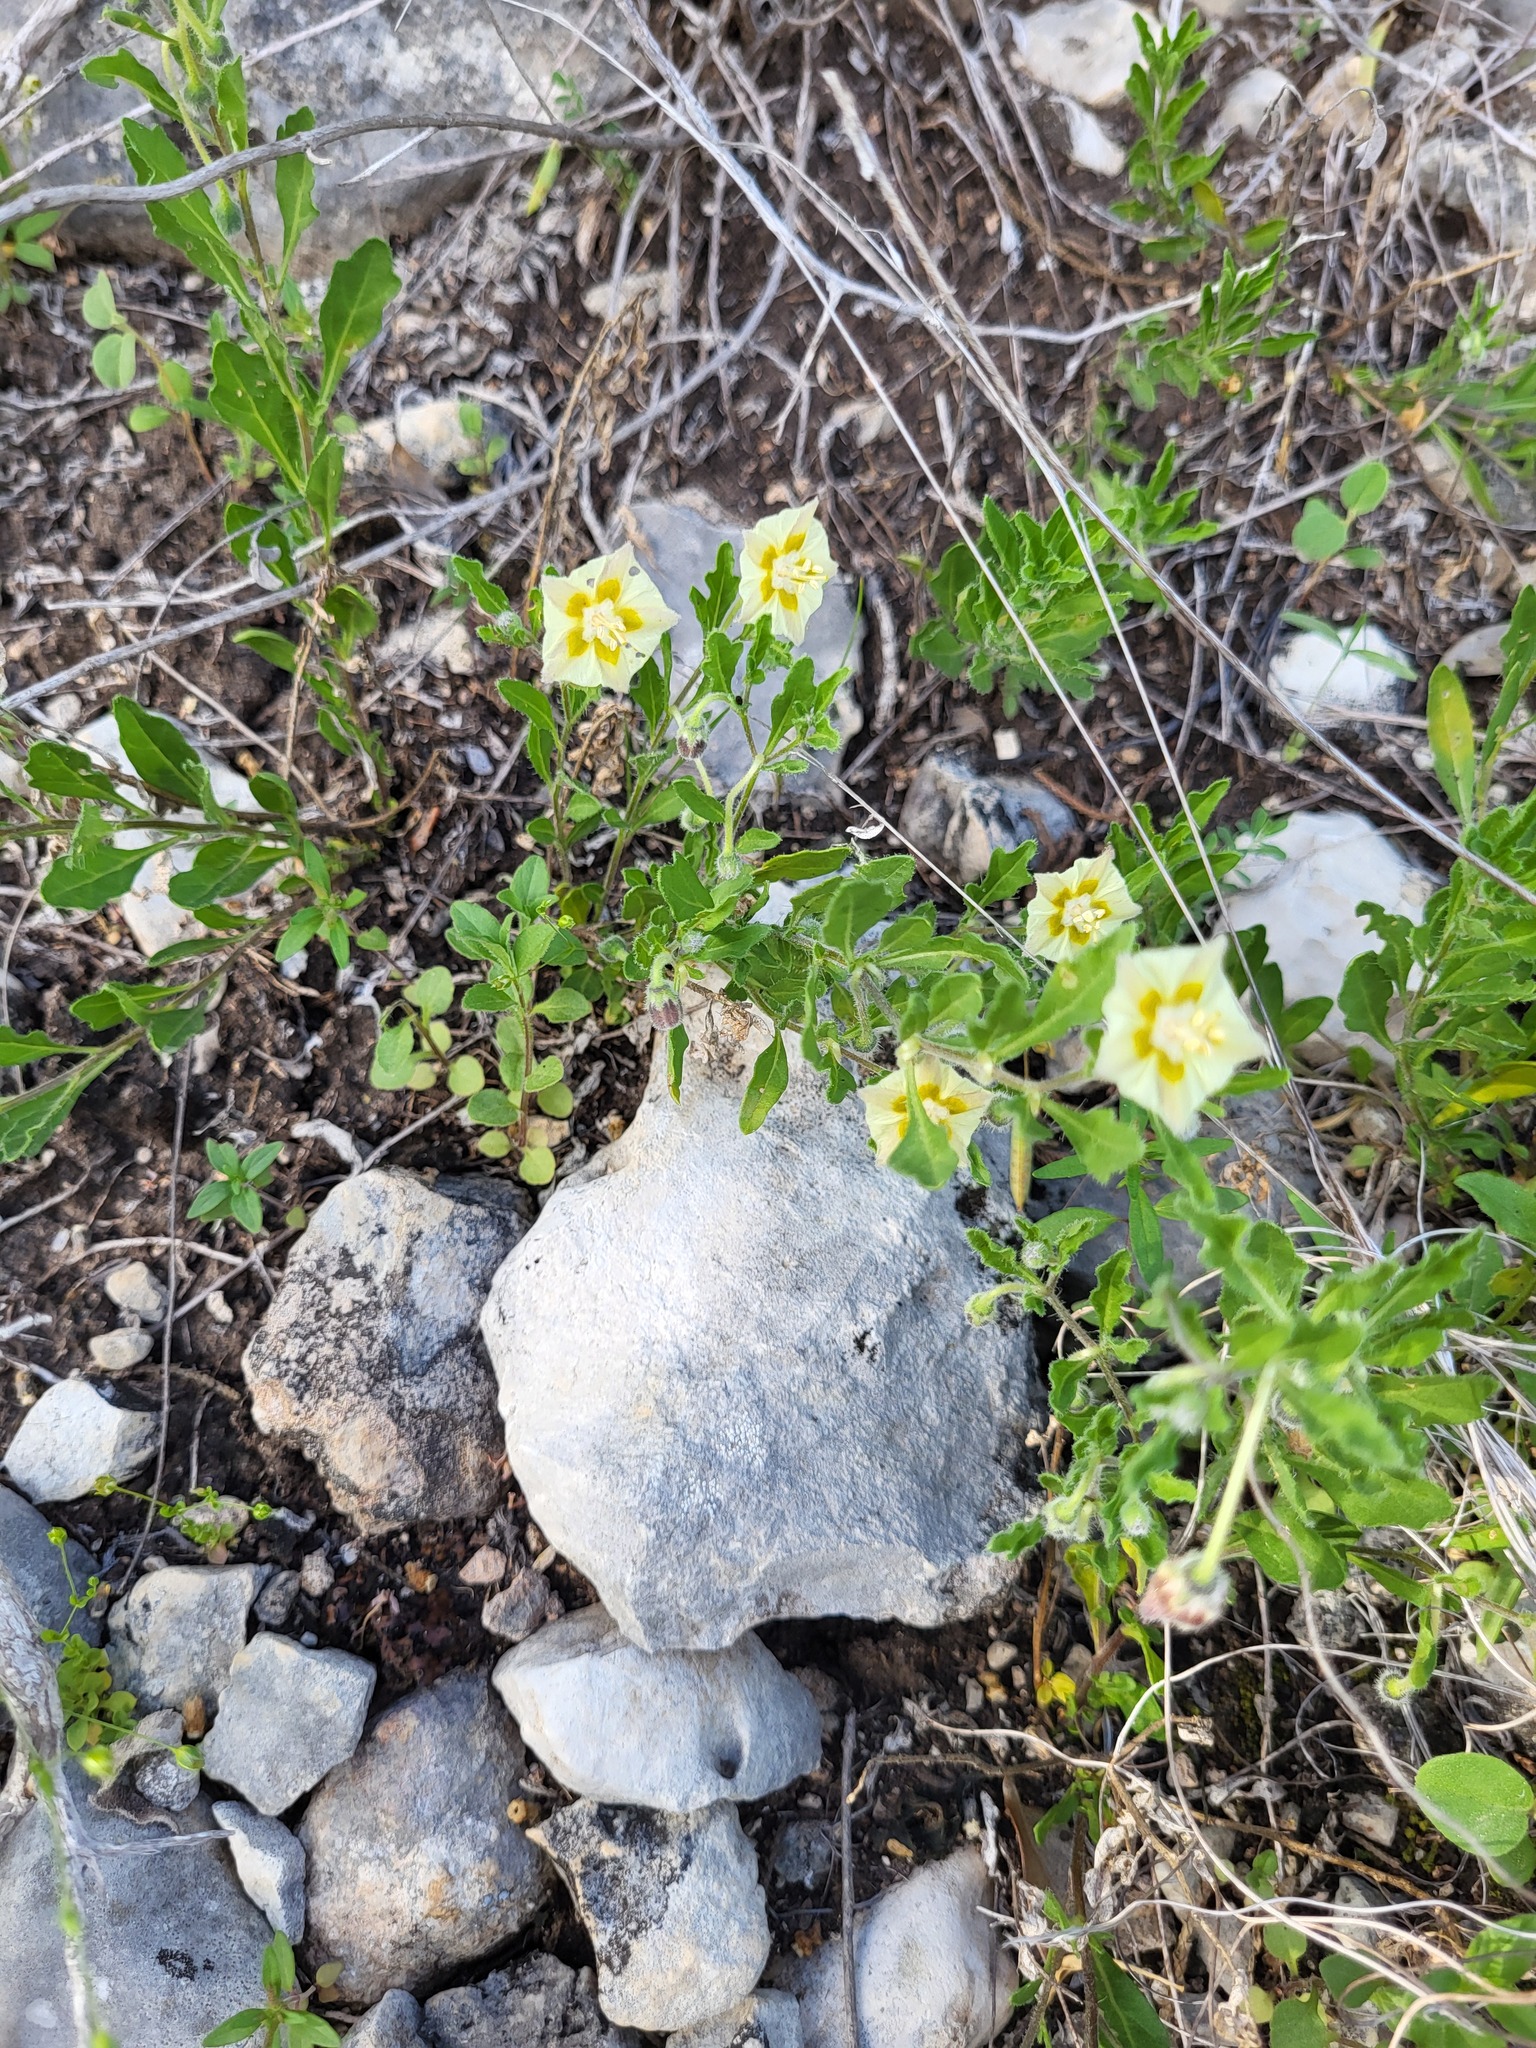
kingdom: Plantae
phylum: Tracheophyta
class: Magnoliopsida
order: Solanales
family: Solanaceae
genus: Chamaesaracha
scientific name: Chamaesaracha sordida
